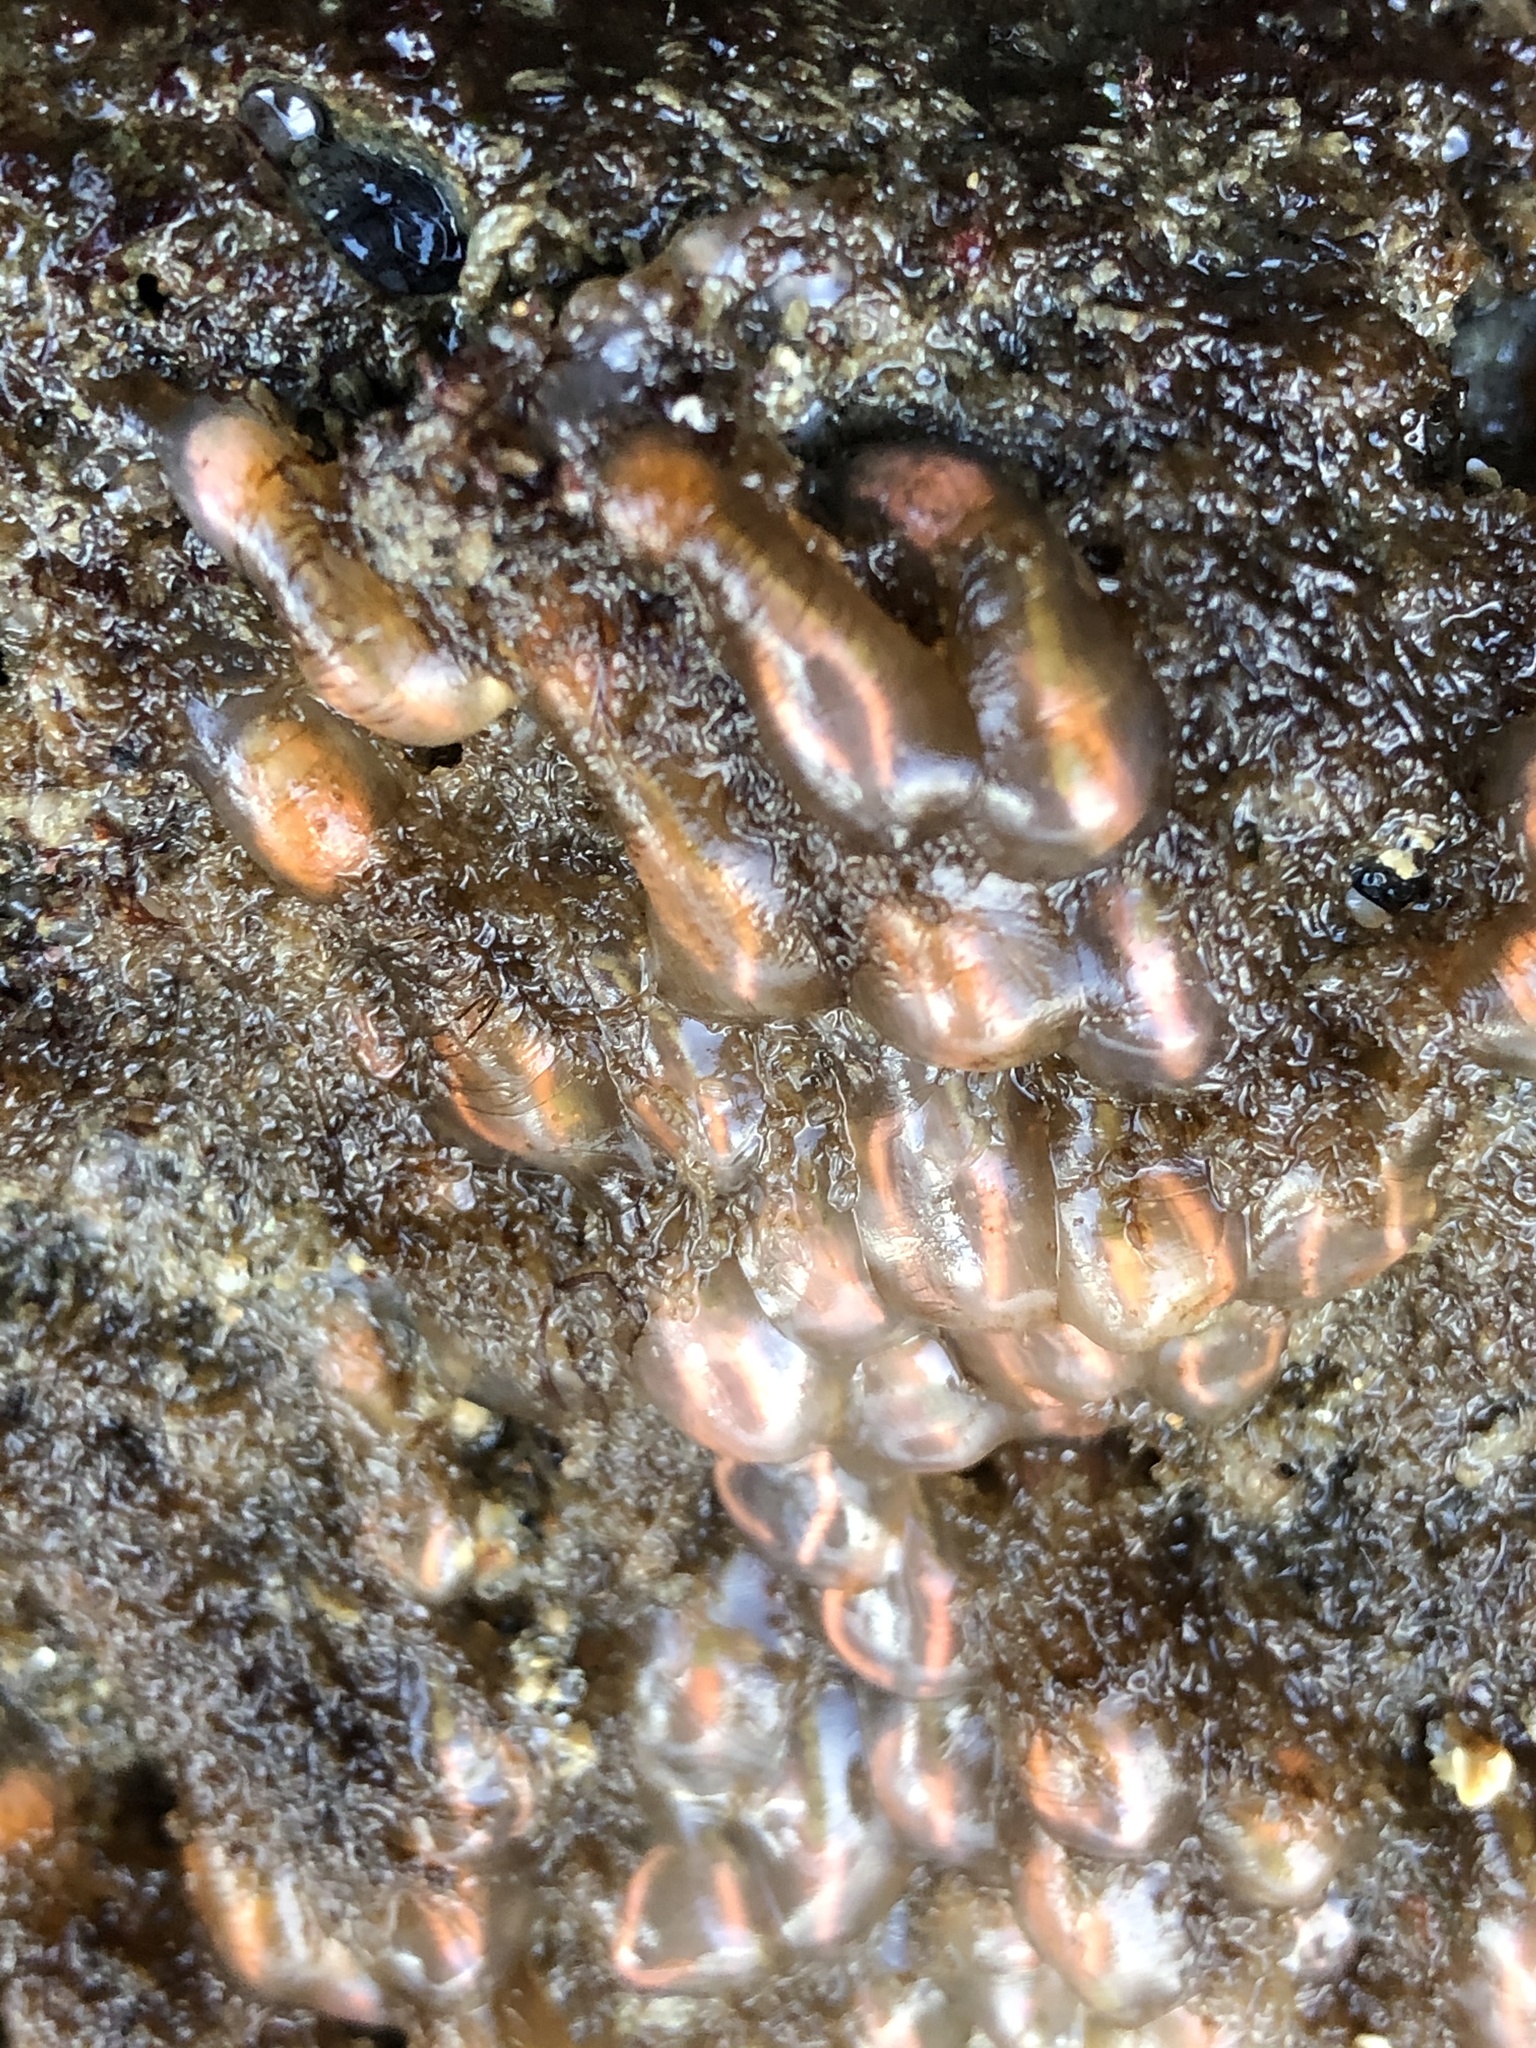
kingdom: Animalia
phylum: Chordata
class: Ascidiacea
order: Aplousobranchia
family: Clavelinidae
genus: Clavelina
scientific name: Clavelina huntsmani
